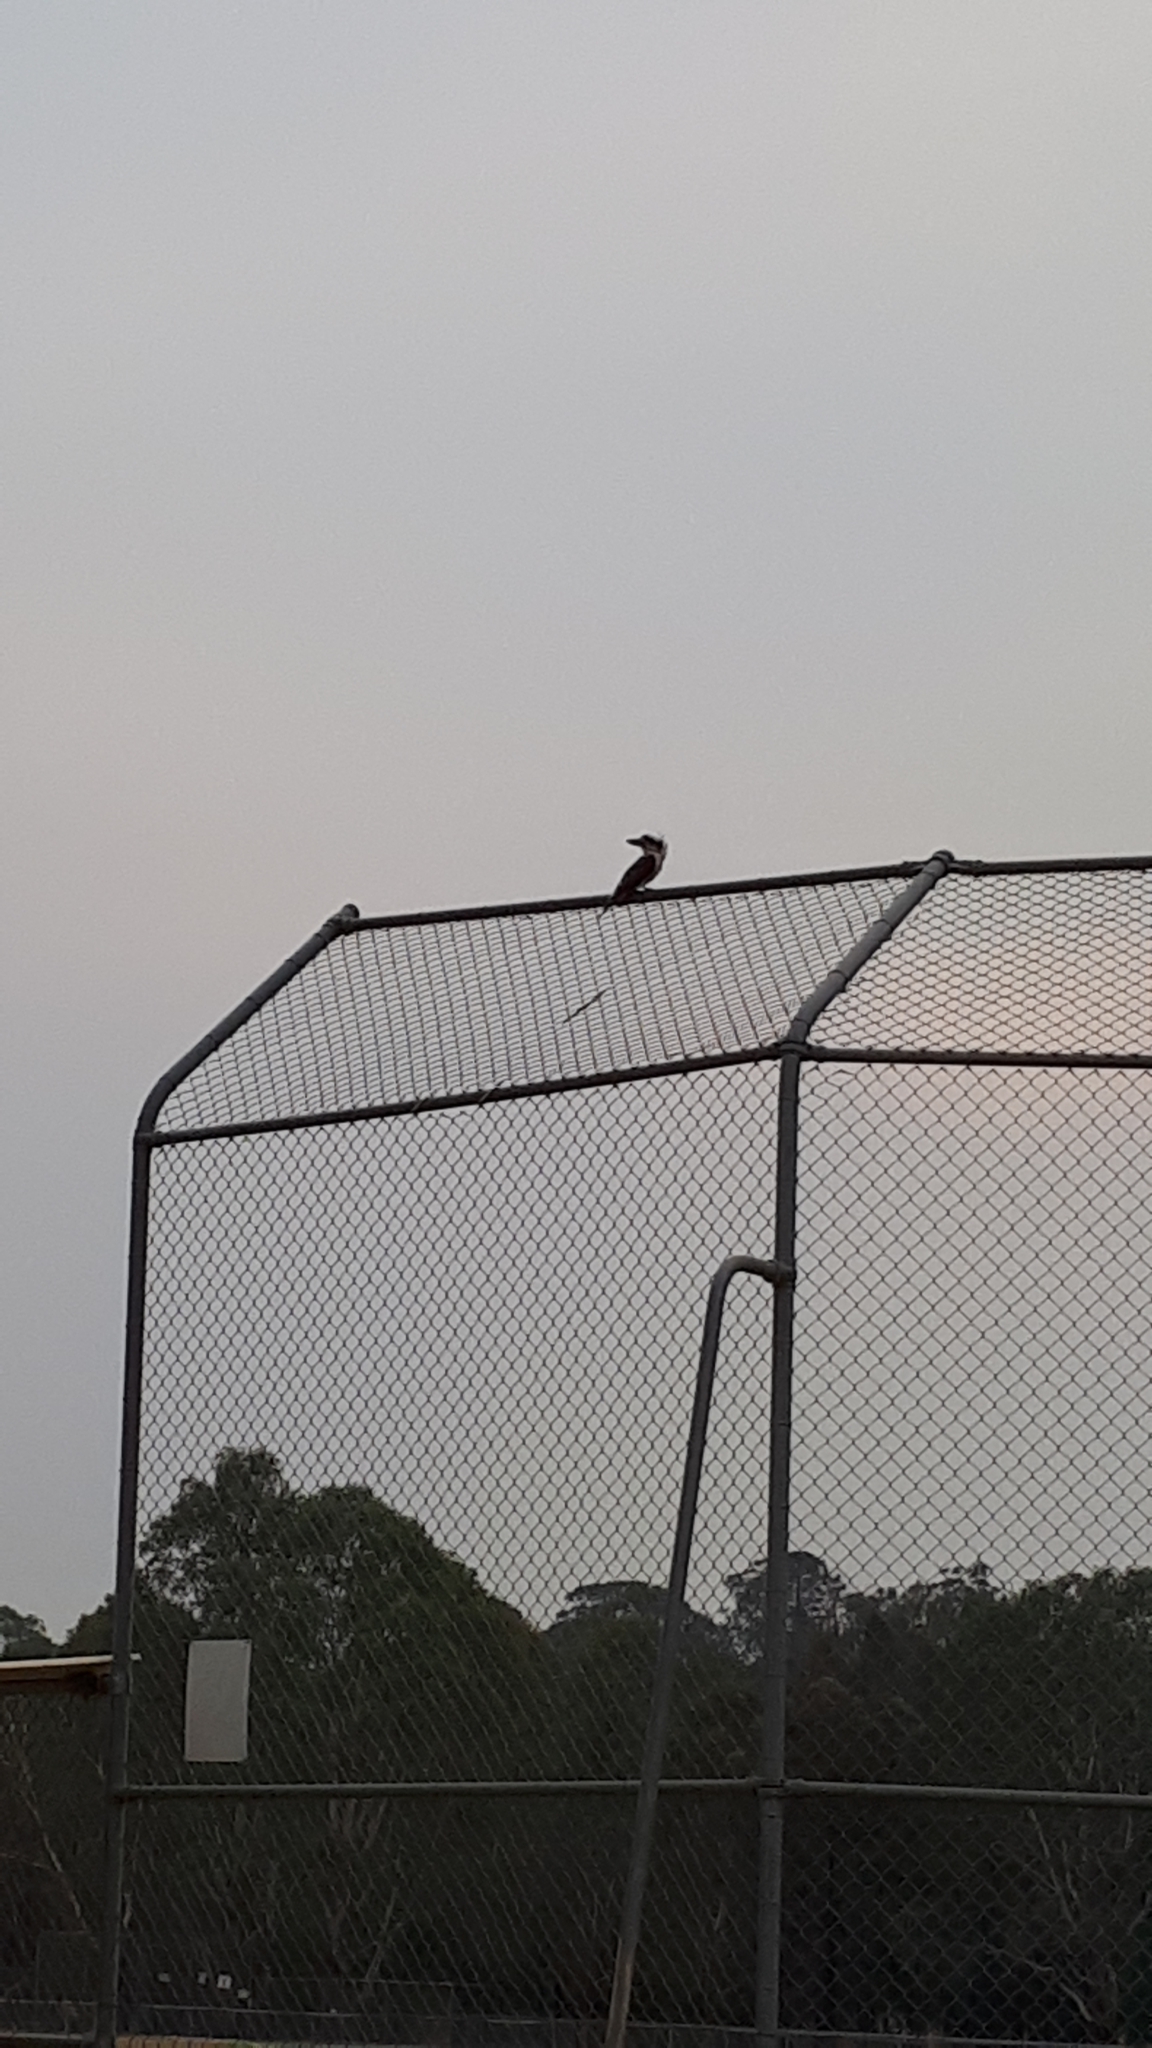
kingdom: Animalia
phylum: Chordata
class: Aves
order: Coraciiformes
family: Alcedinidae
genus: Dacelo
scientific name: Dacelo novaeguineae
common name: Laughing kookaburra
